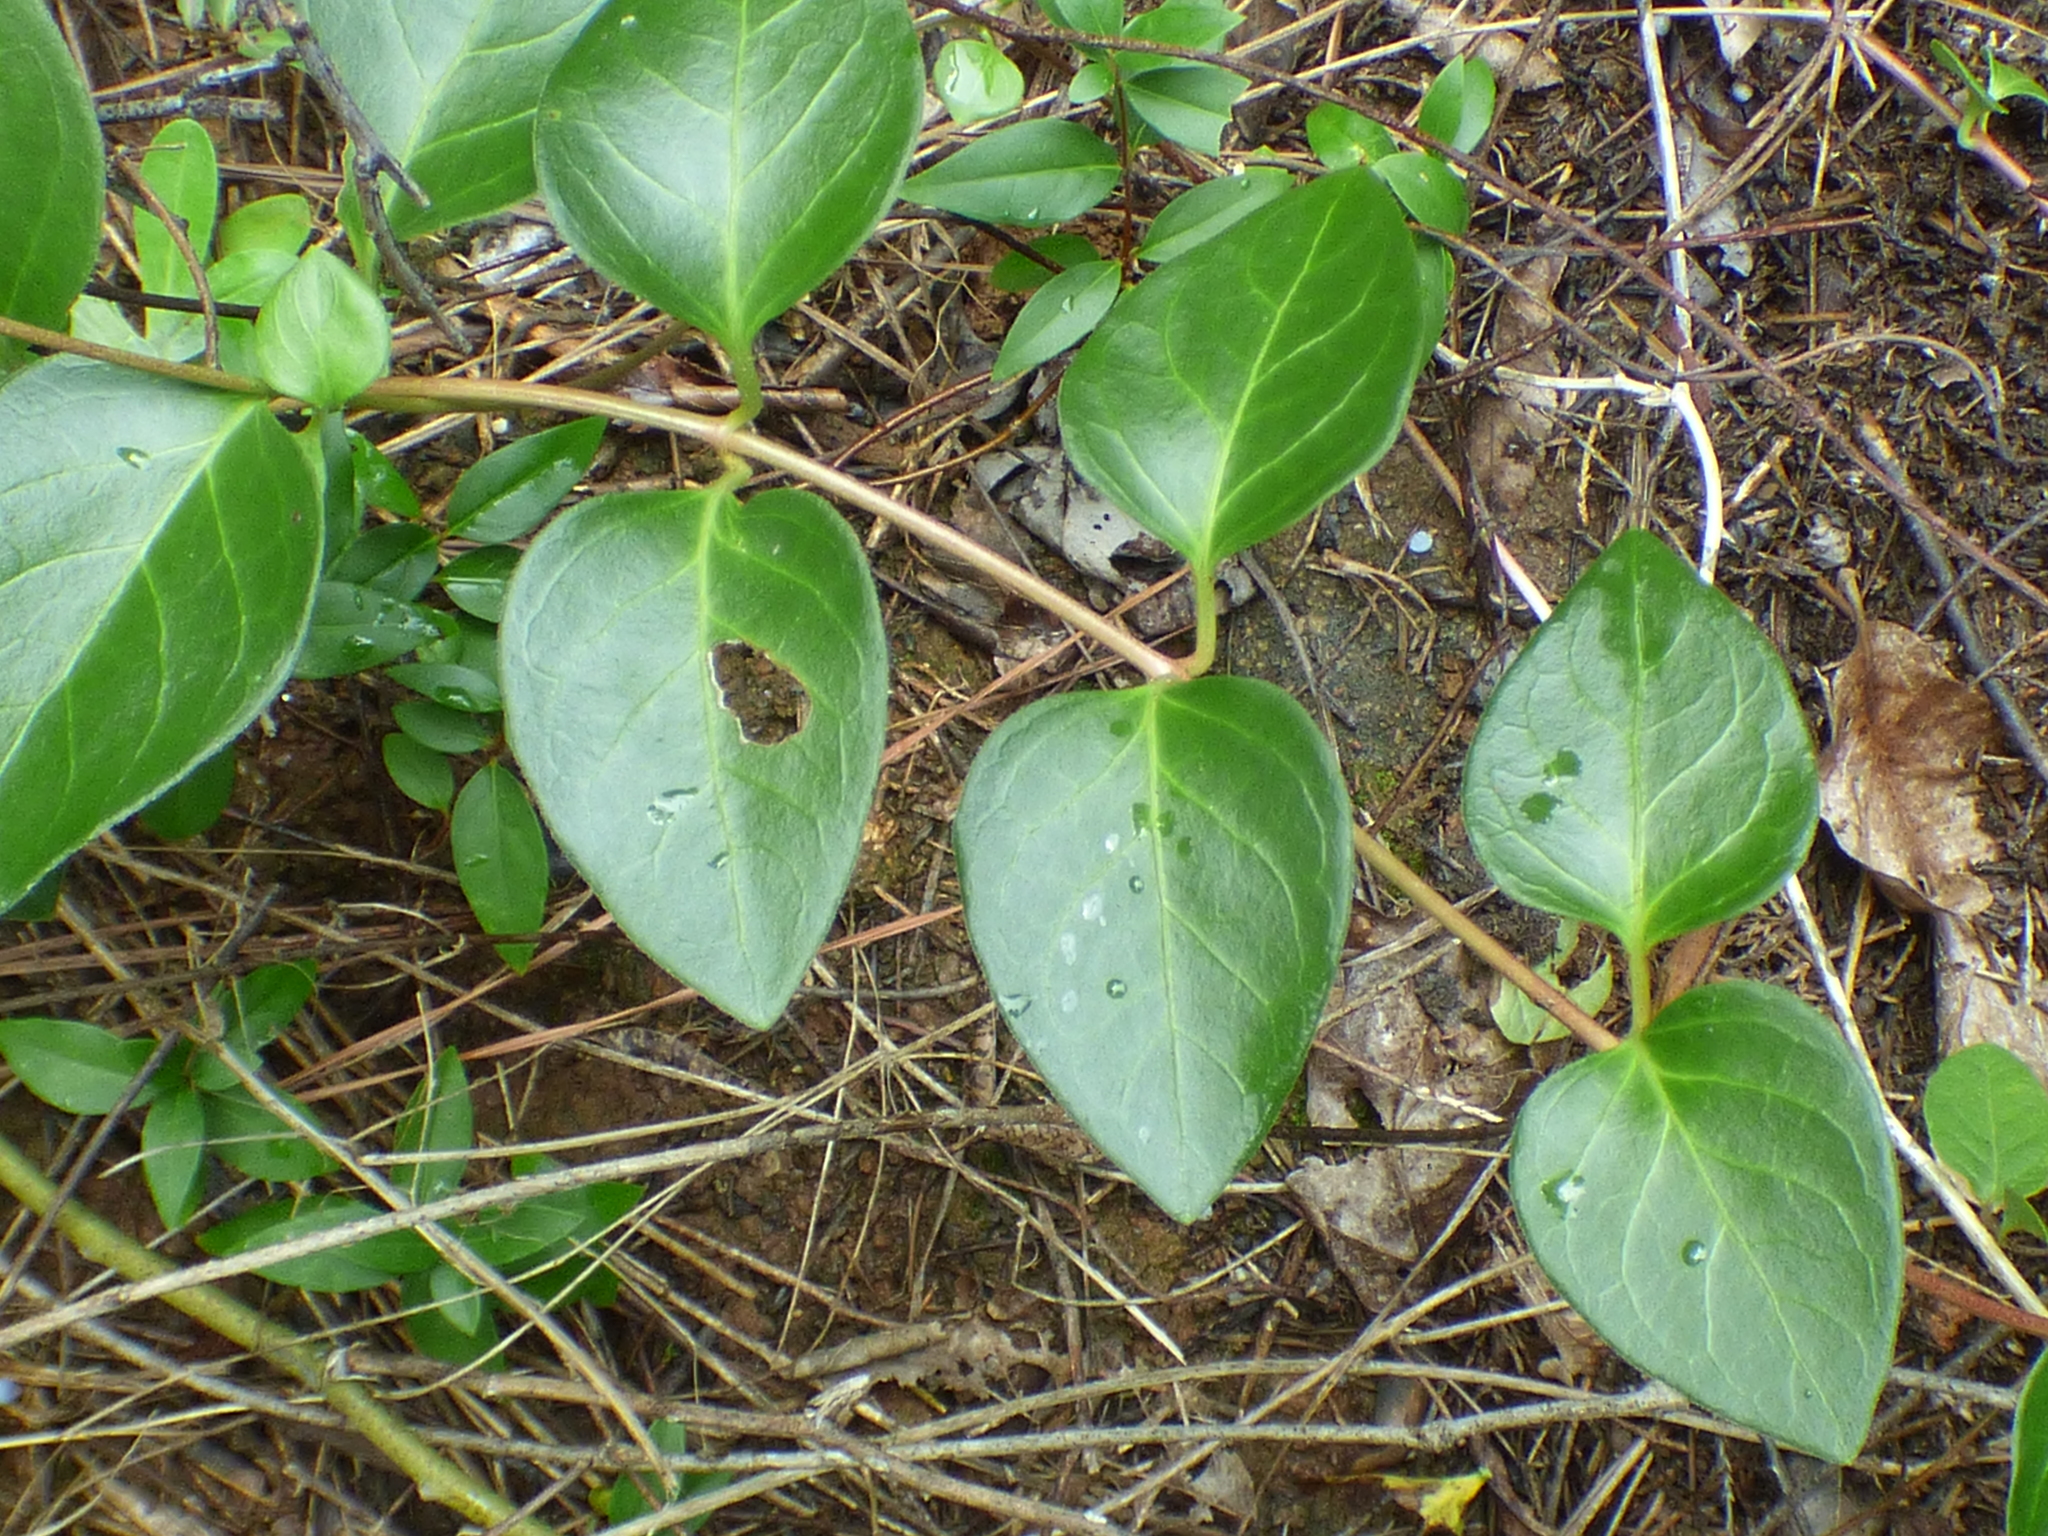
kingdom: Plantae
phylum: Tracheophyta
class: Magnoliopsida
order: Gentianales
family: Apocynaceae
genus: Vinca
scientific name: Vinca major
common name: Greater periwinkle
